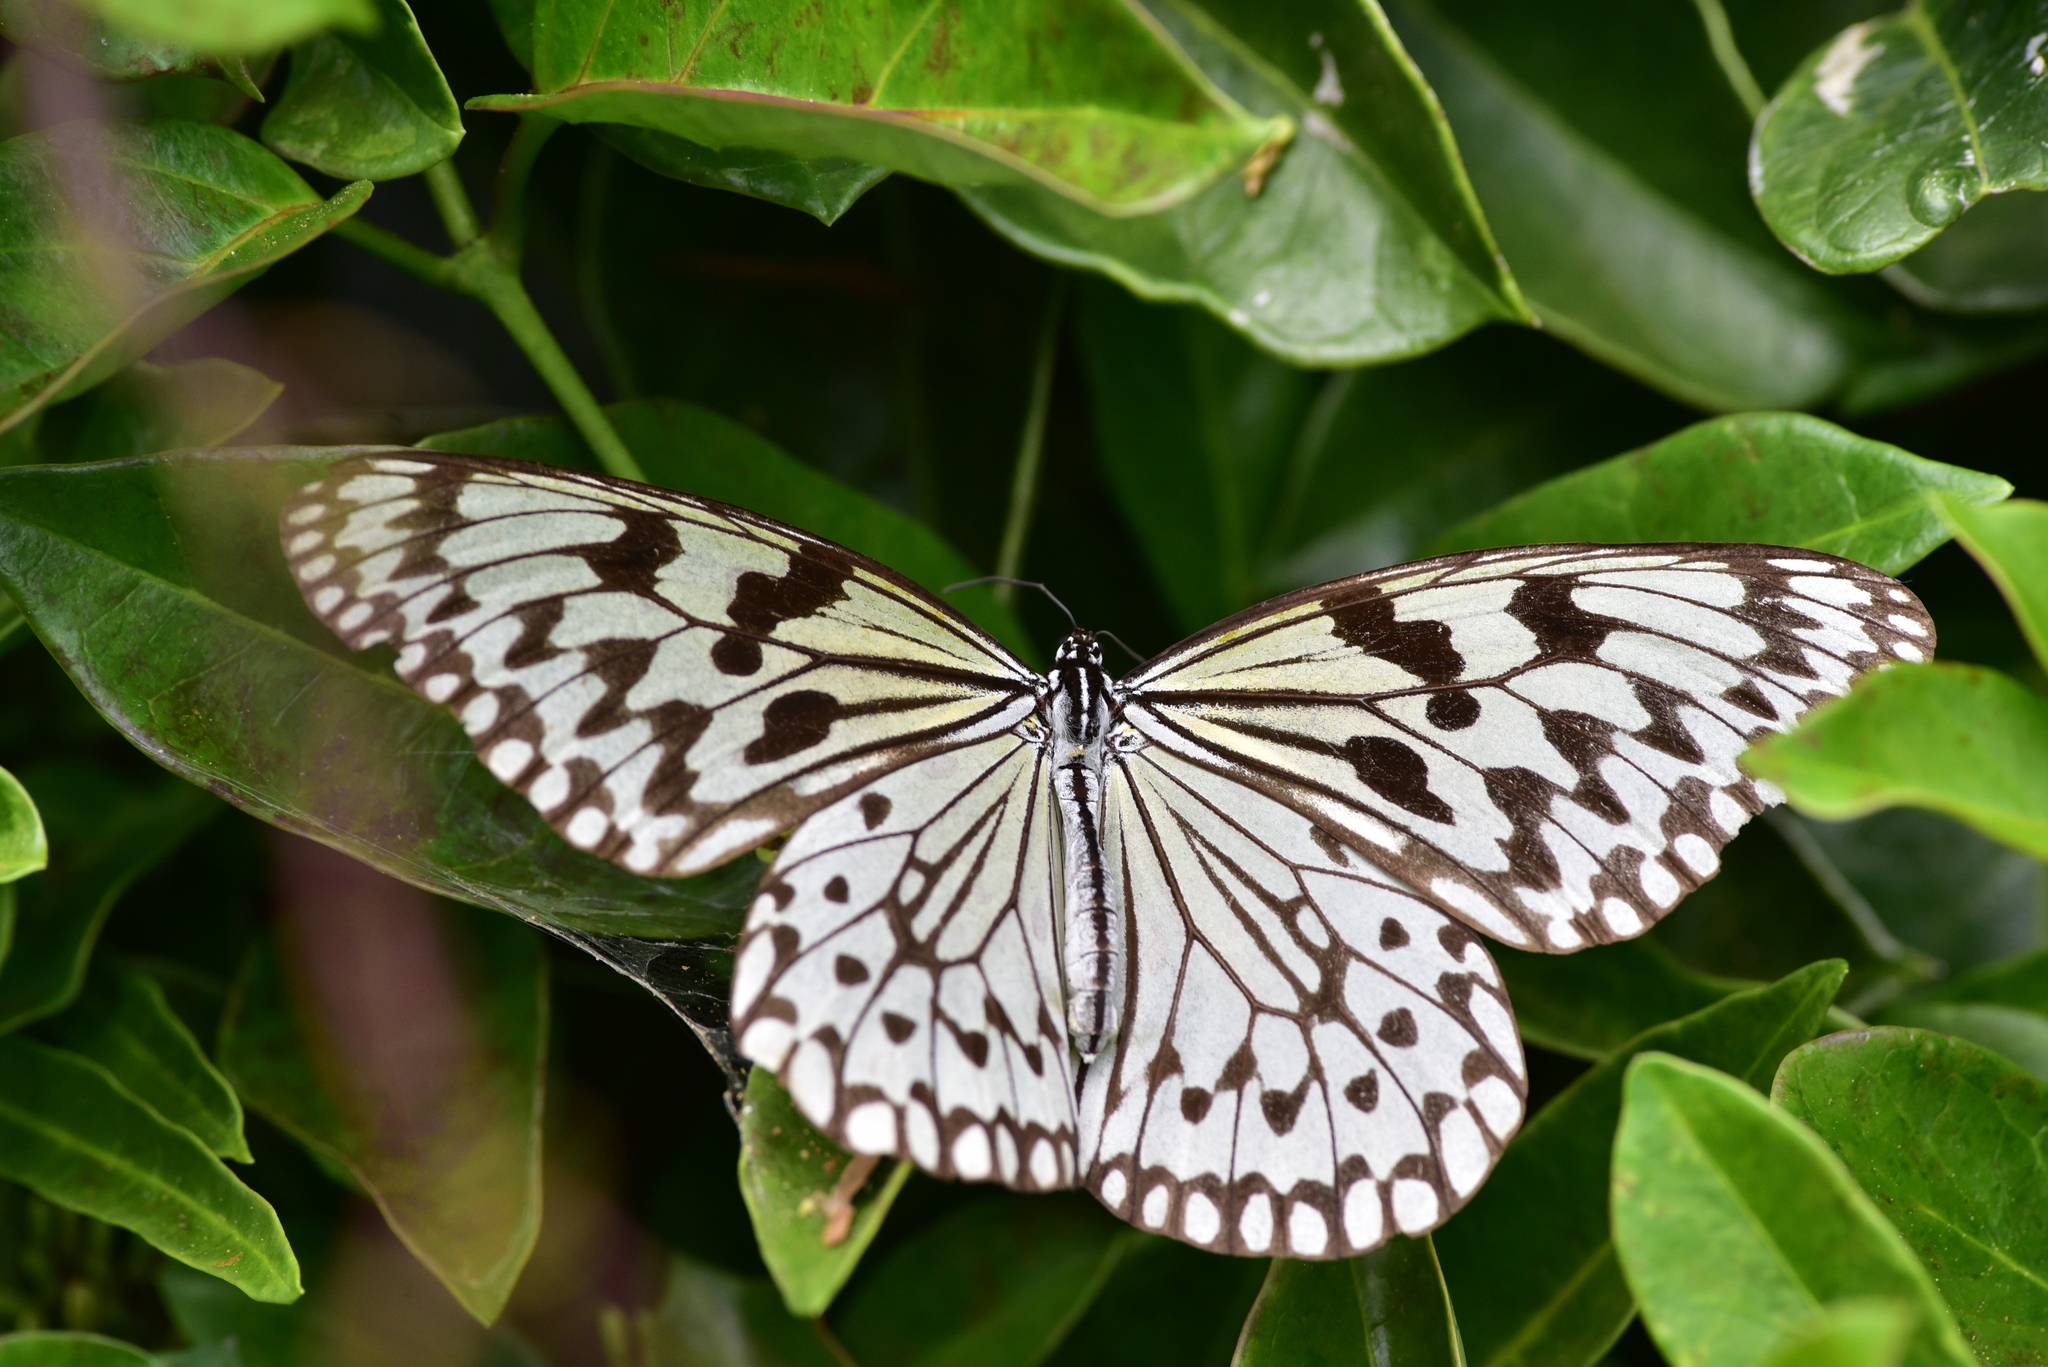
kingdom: Animalia
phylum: Arthropoda
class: Insecta
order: Lepidoptera
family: Nymphalidae
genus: Idea
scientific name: Idea leuconoe
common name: Rice paper butterfly
